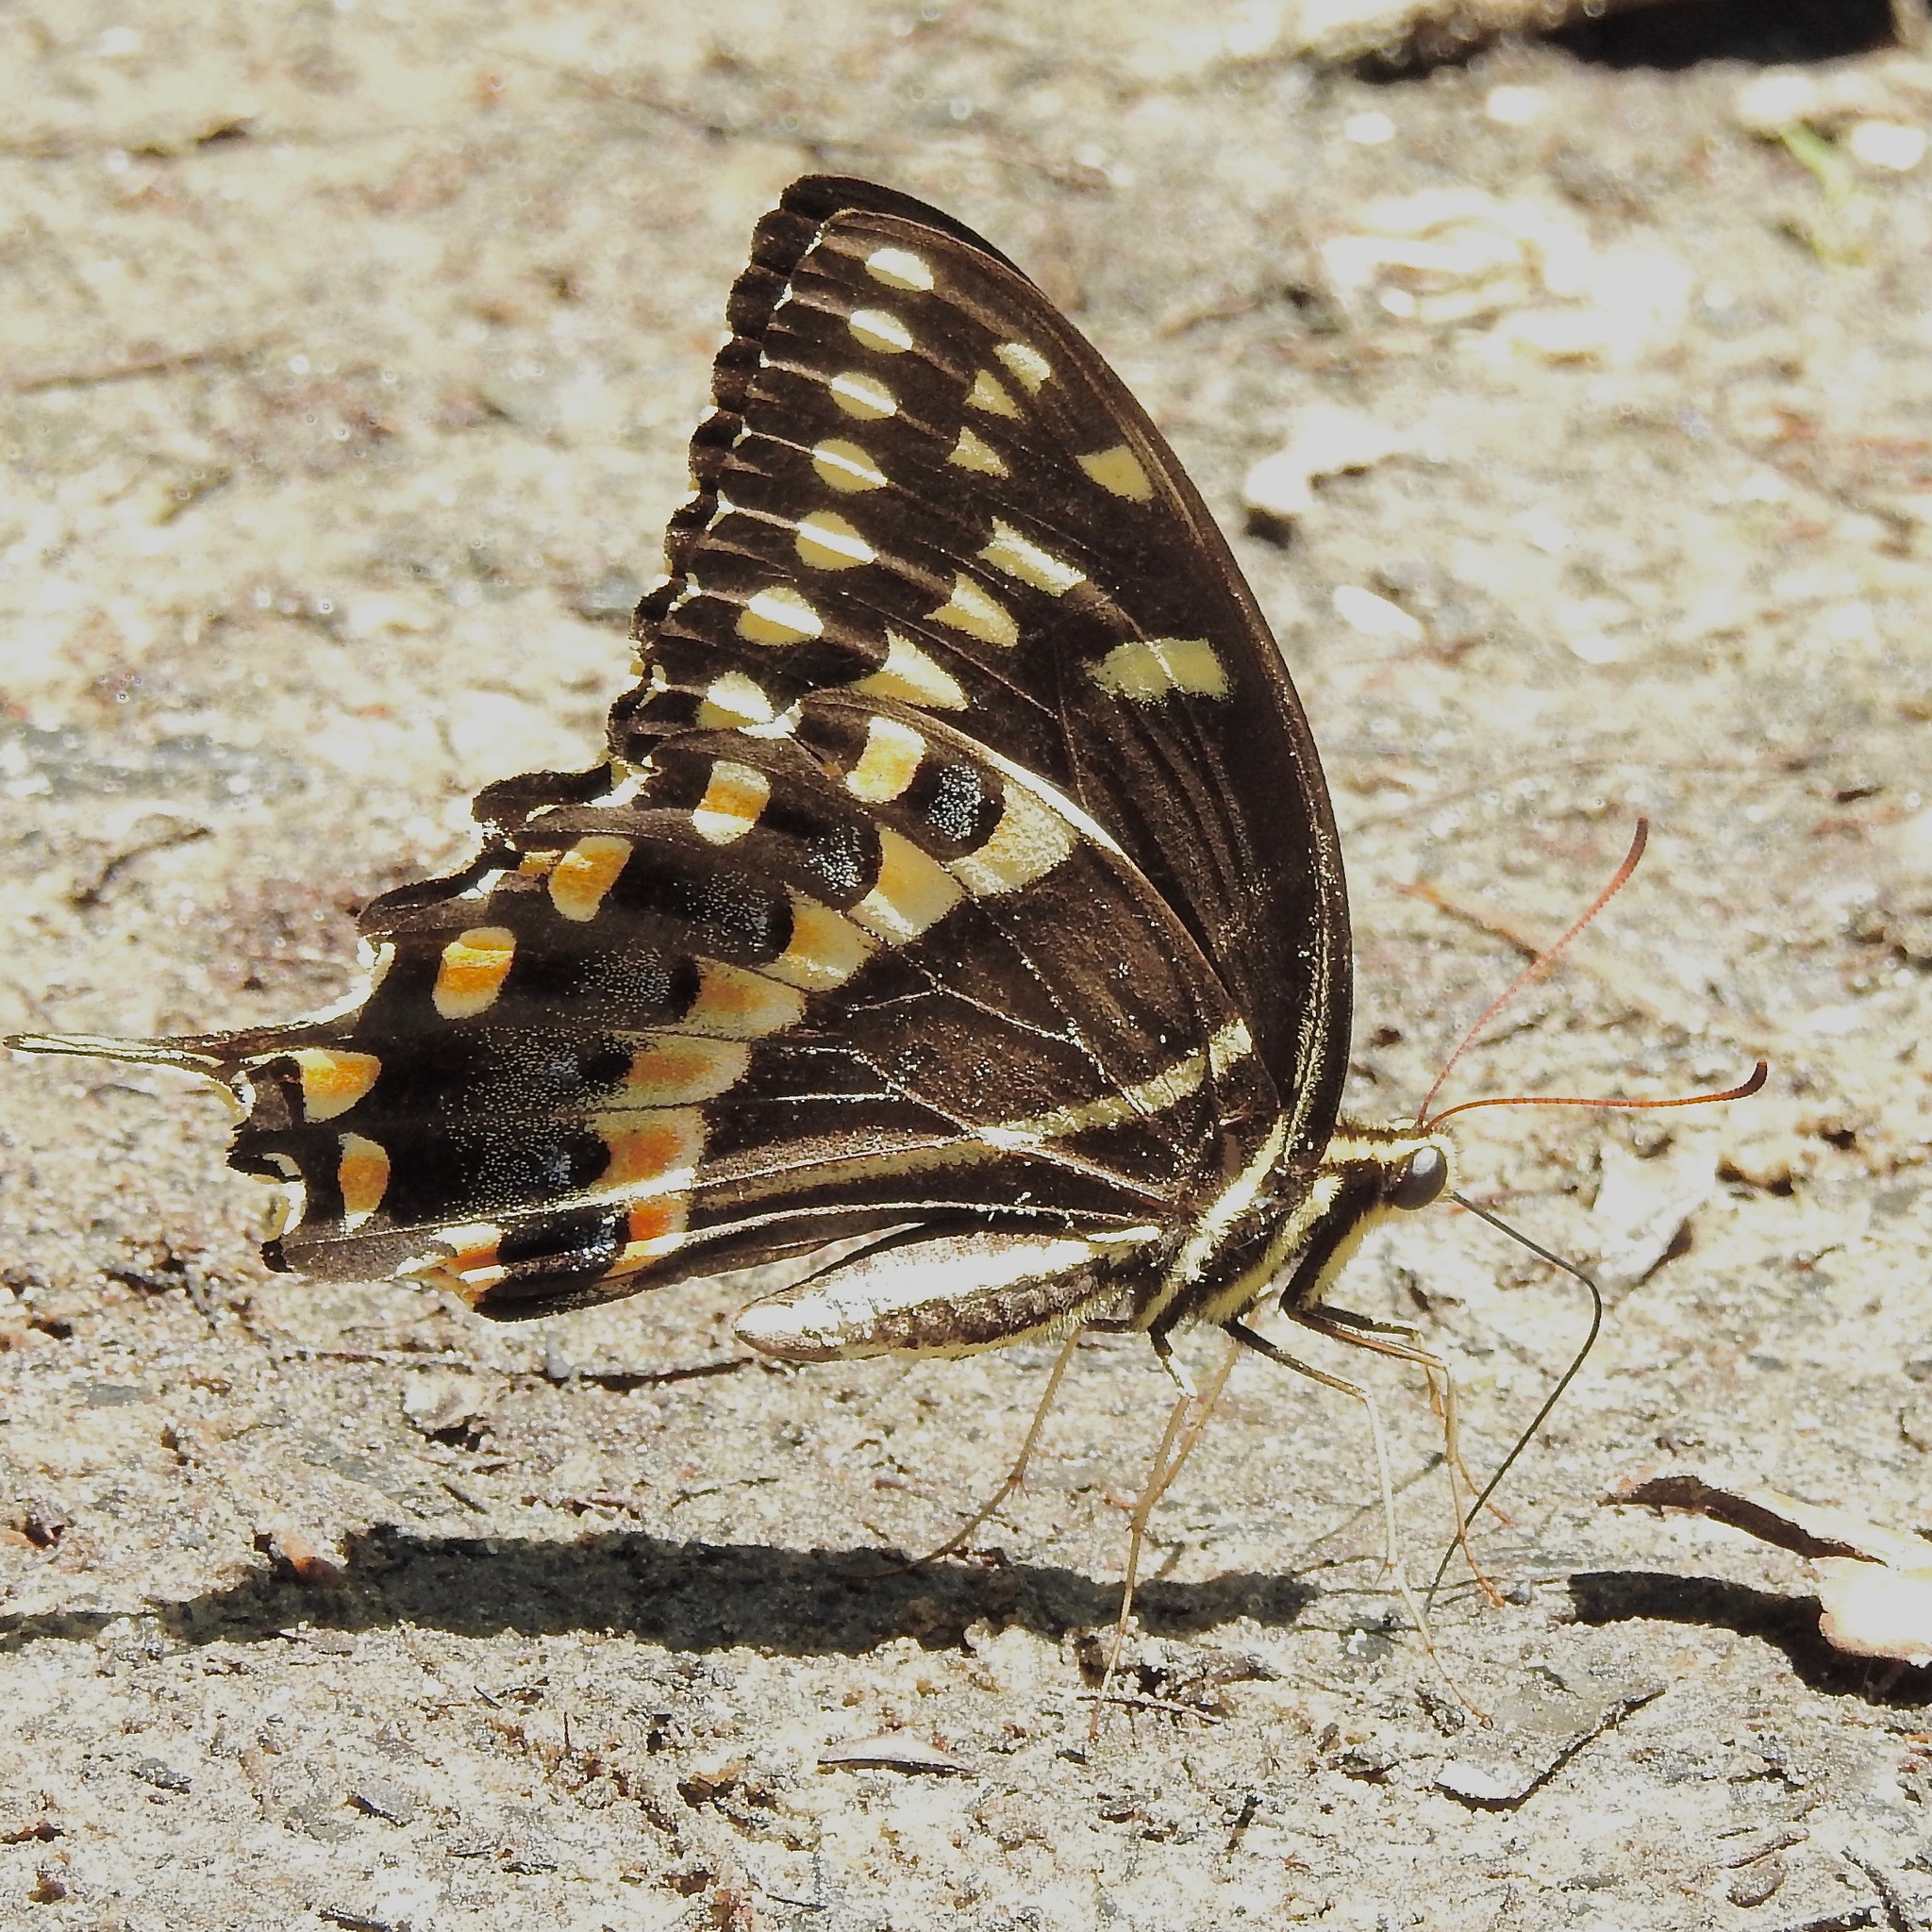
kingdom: Animalia
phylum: Arthropoda
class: Insecta
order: Lepidoptera
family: Papilionidae
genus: Papilio
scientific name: Papilio palamedes
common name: Palamedes swallowtail
